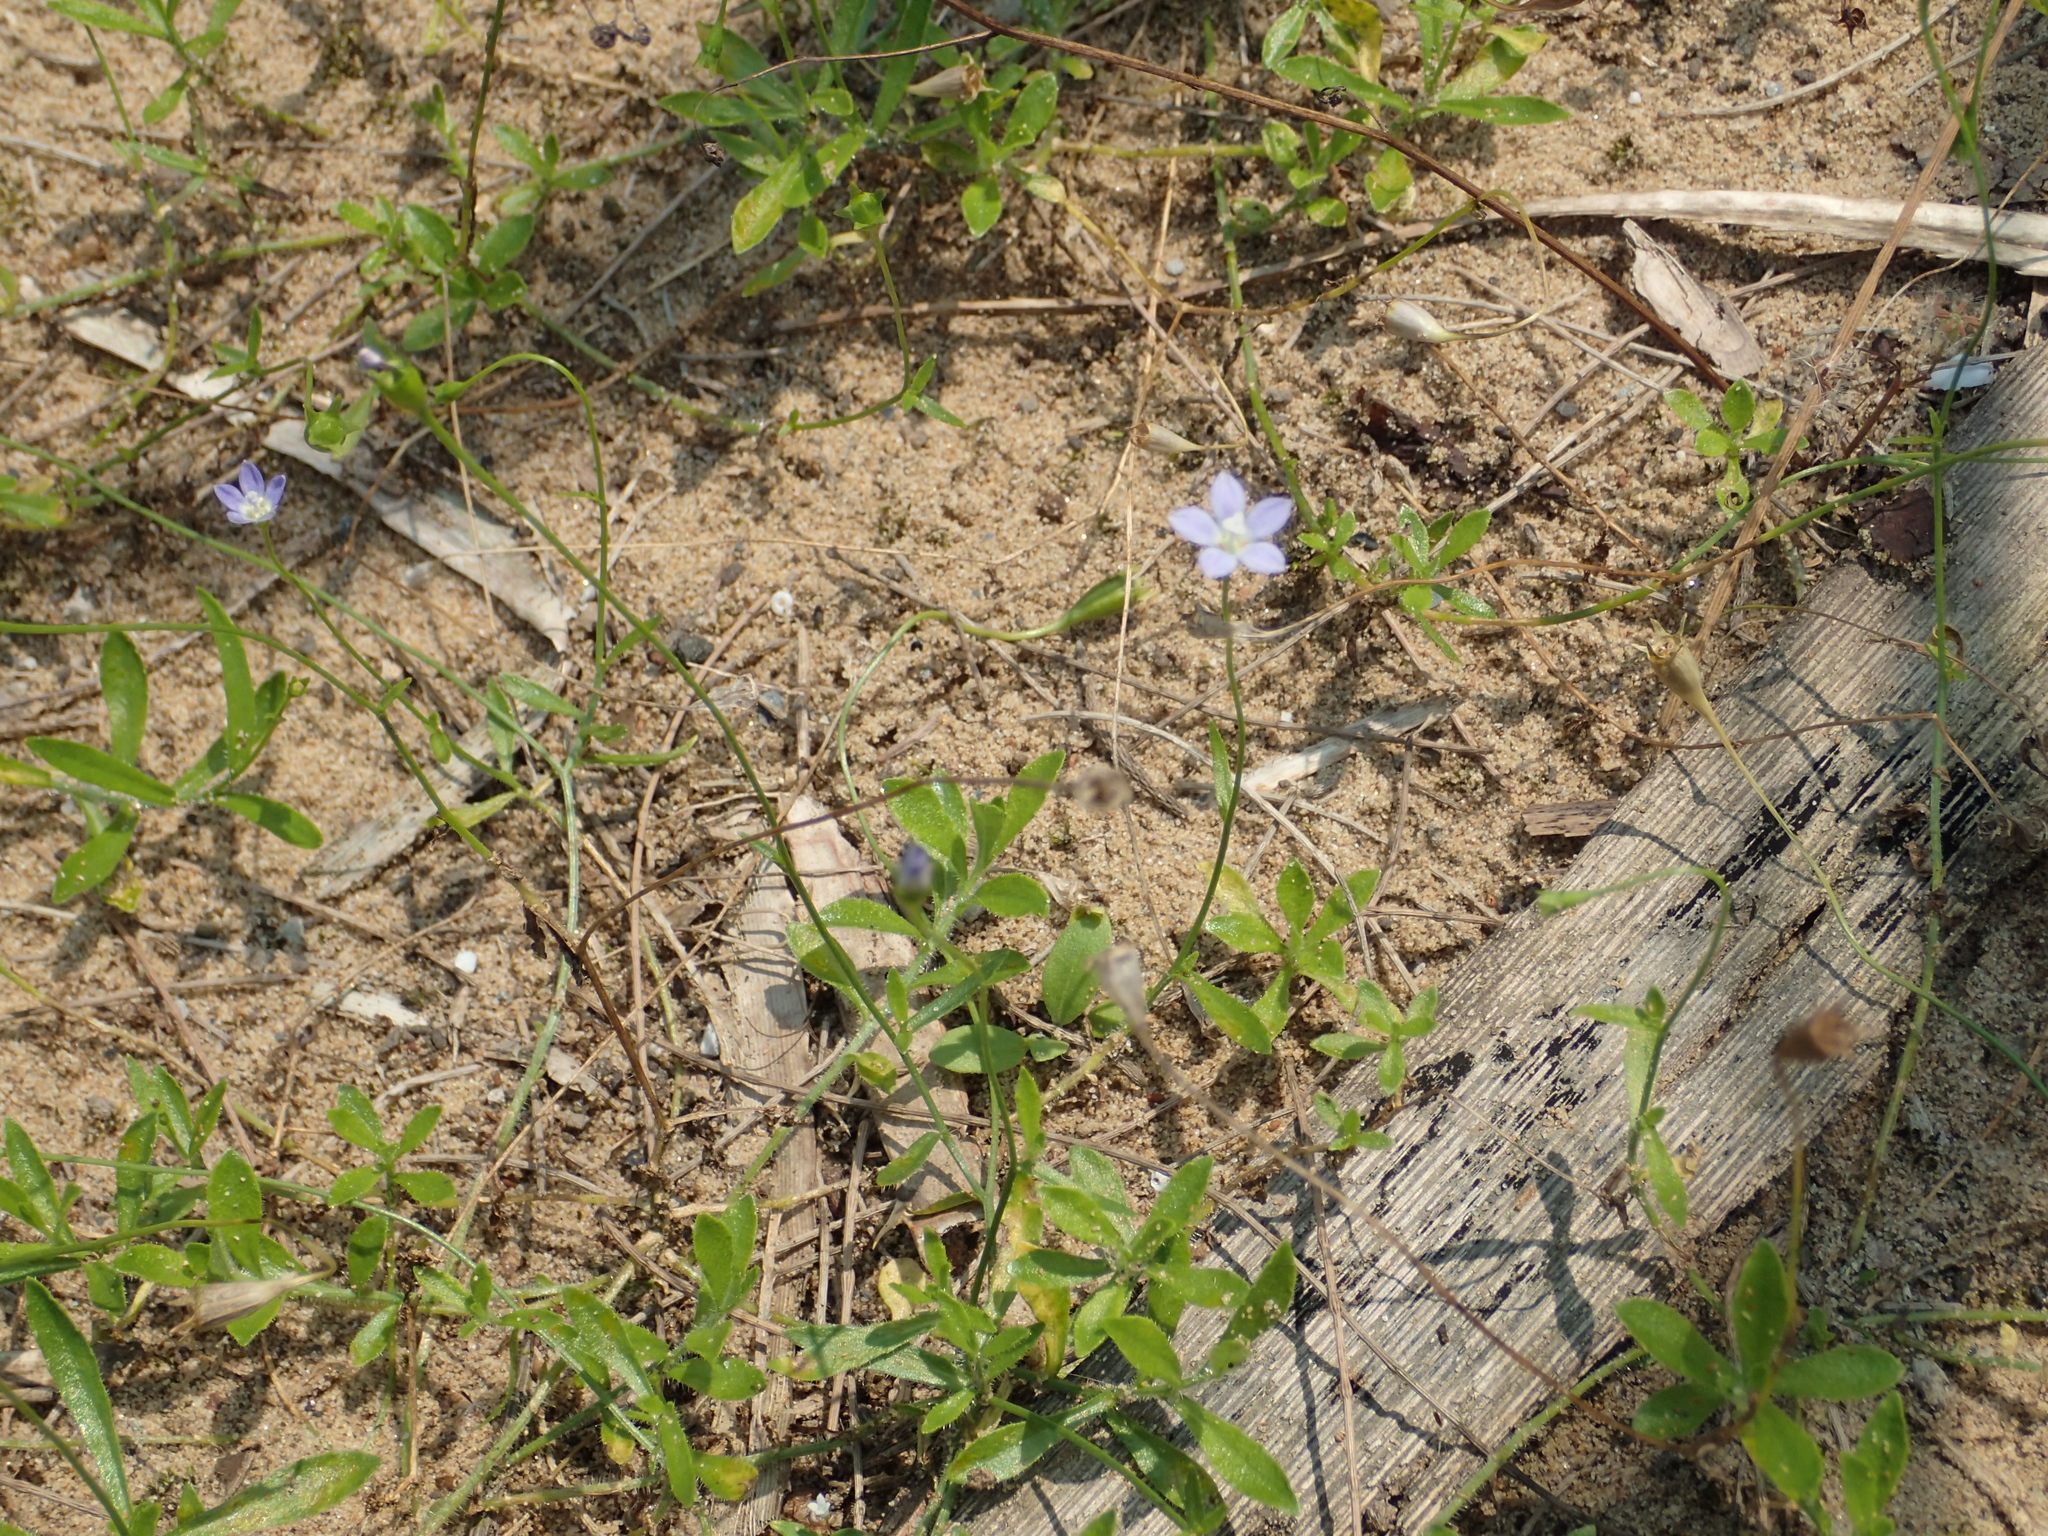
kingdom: Plantae
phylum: Tracheophyta
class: Magnoliopsida
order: Asterales
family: Campanulaceae
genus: Wahlenbergia
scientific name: Wahlenbergia marginata
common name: Southern rockbell
